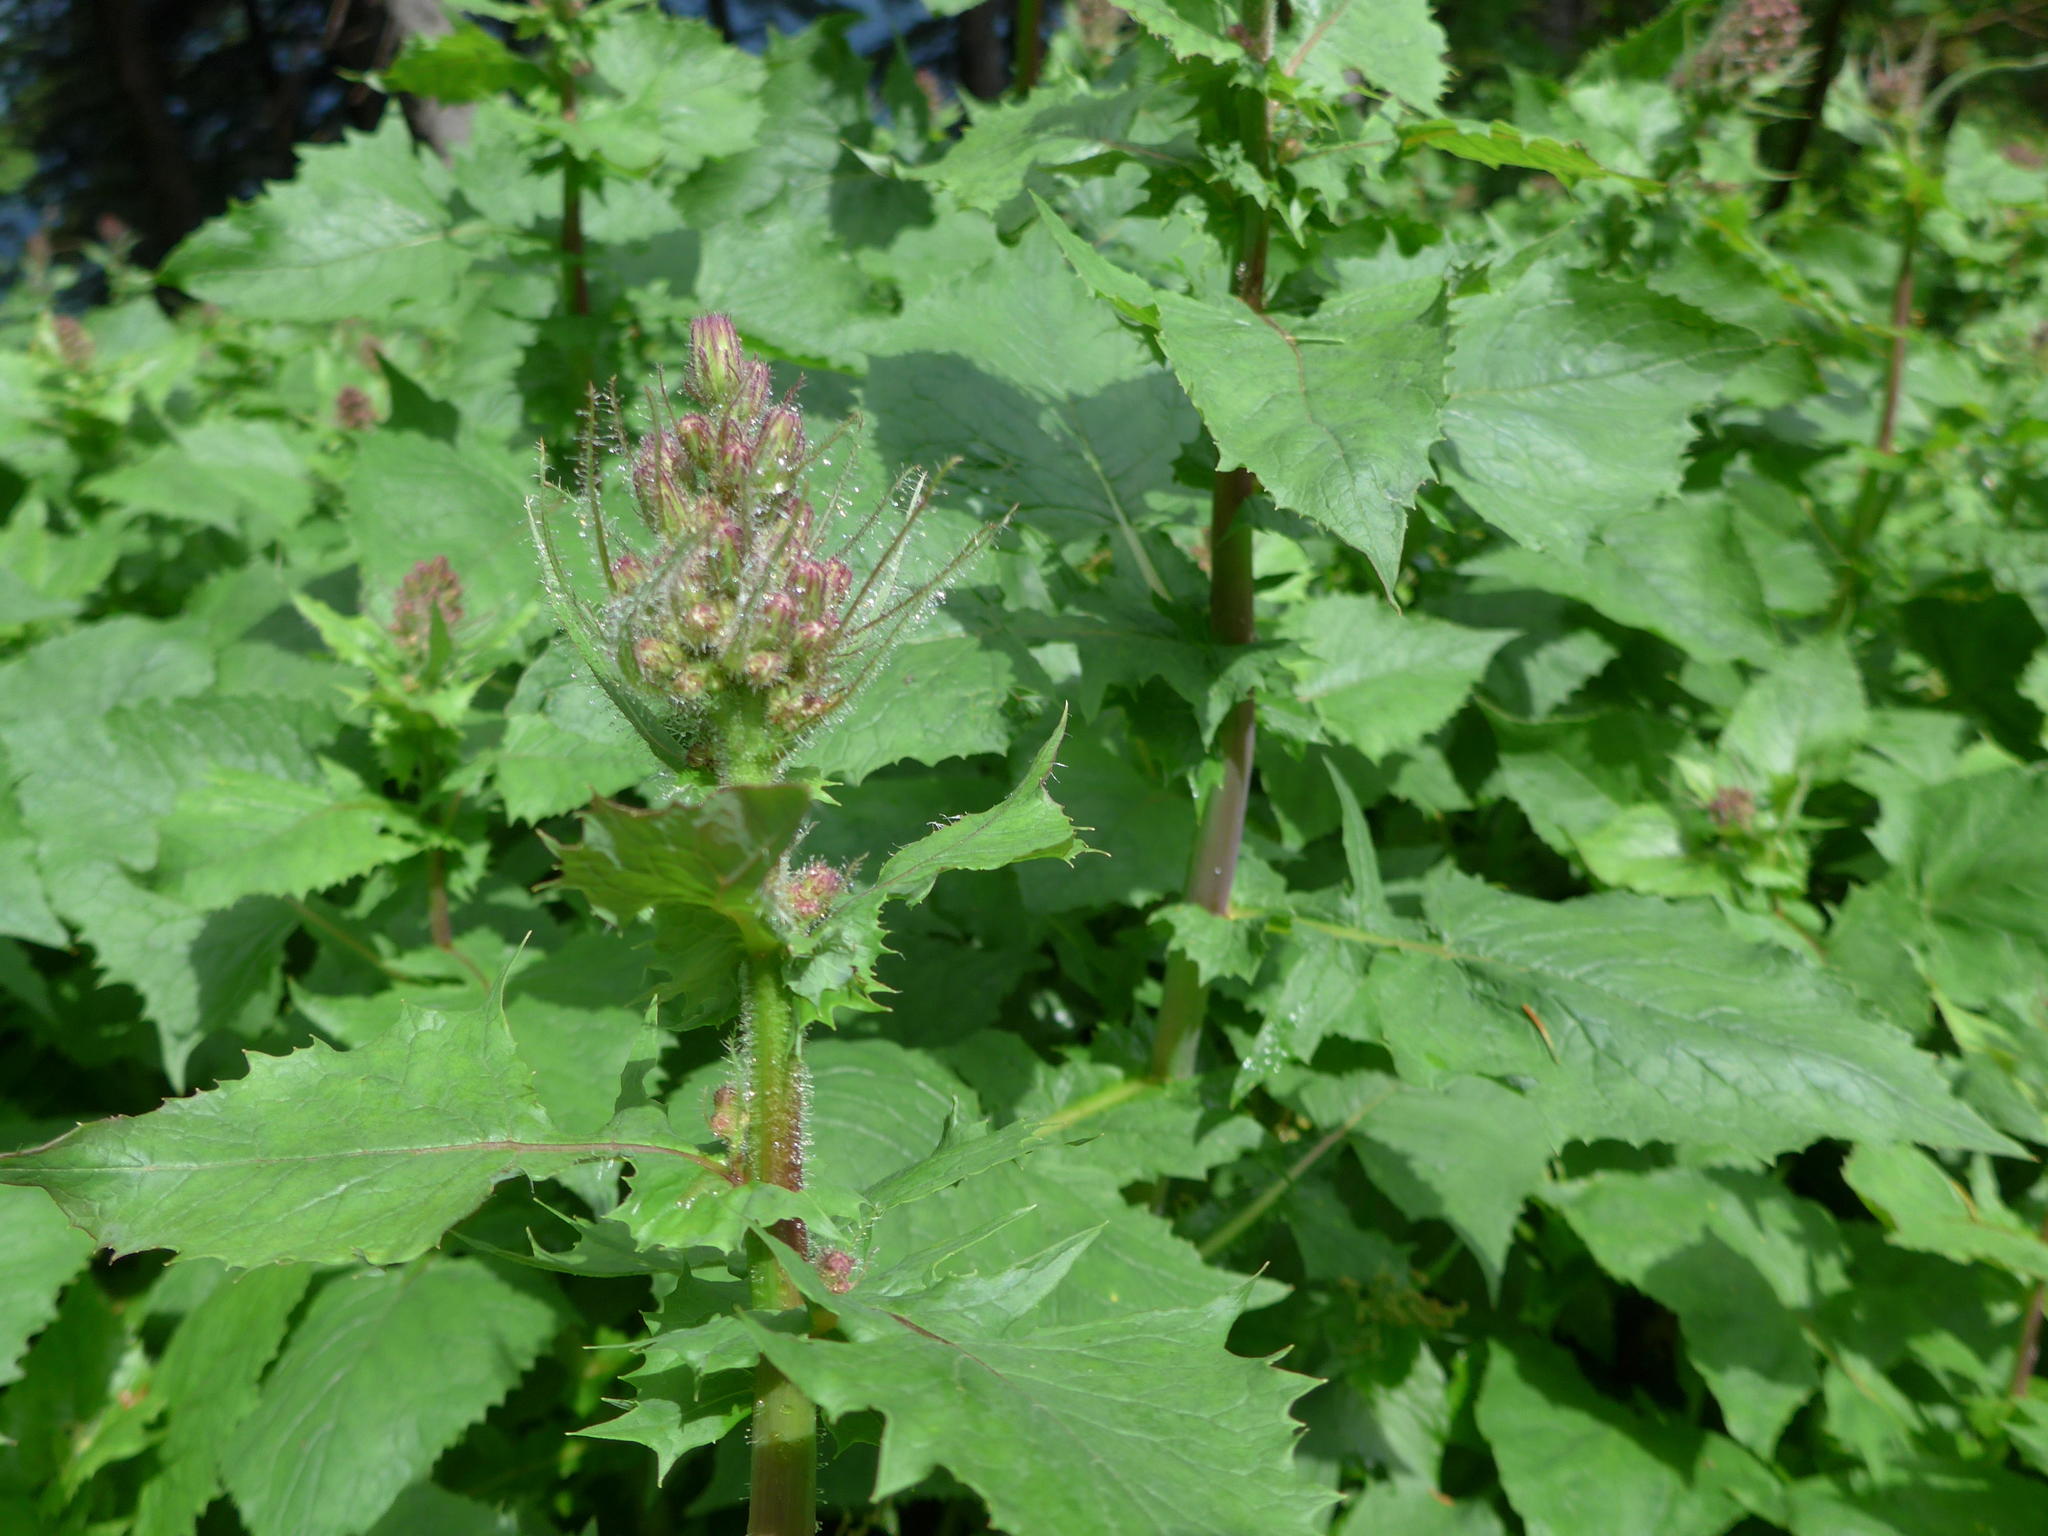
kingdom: Plantae
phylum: Tracheophyta
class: Magnoliopsida
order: Asterales
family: Asteraceae
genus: Cicerbita
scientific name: Cicerbita alpina
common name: Alpine blue-sow-thistle
